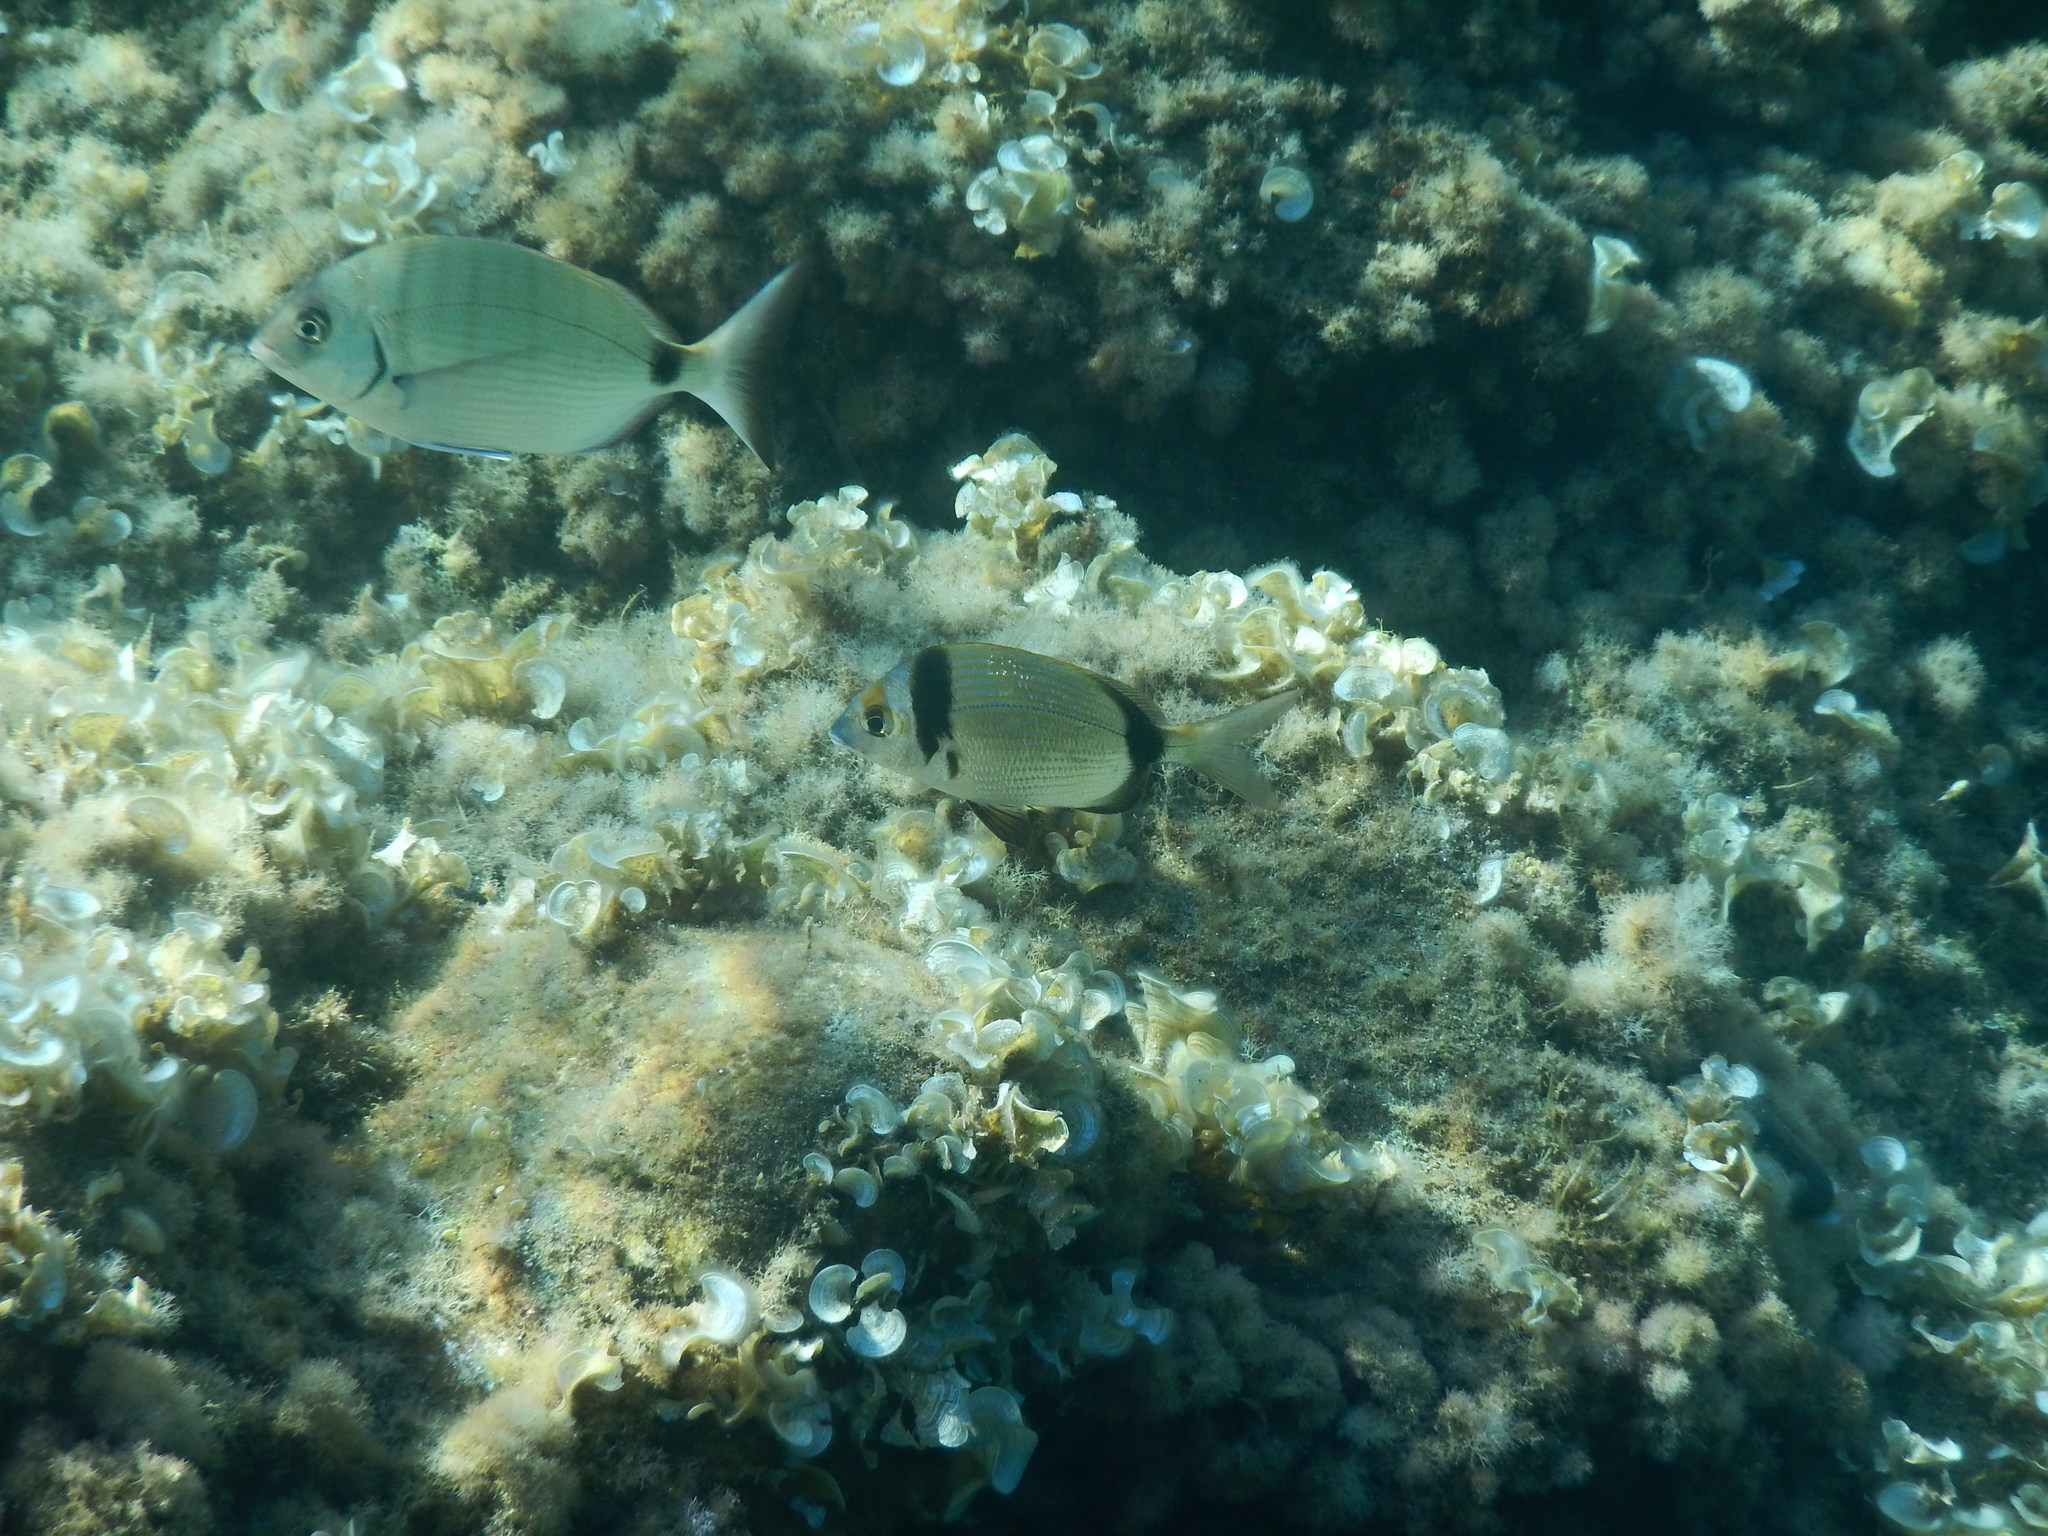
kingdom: Animalia
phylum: Chordata
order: Perciformes
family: Sparidae
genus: Diplodus
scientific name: Diplodus vulgaris
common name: Common two-banded seabream
